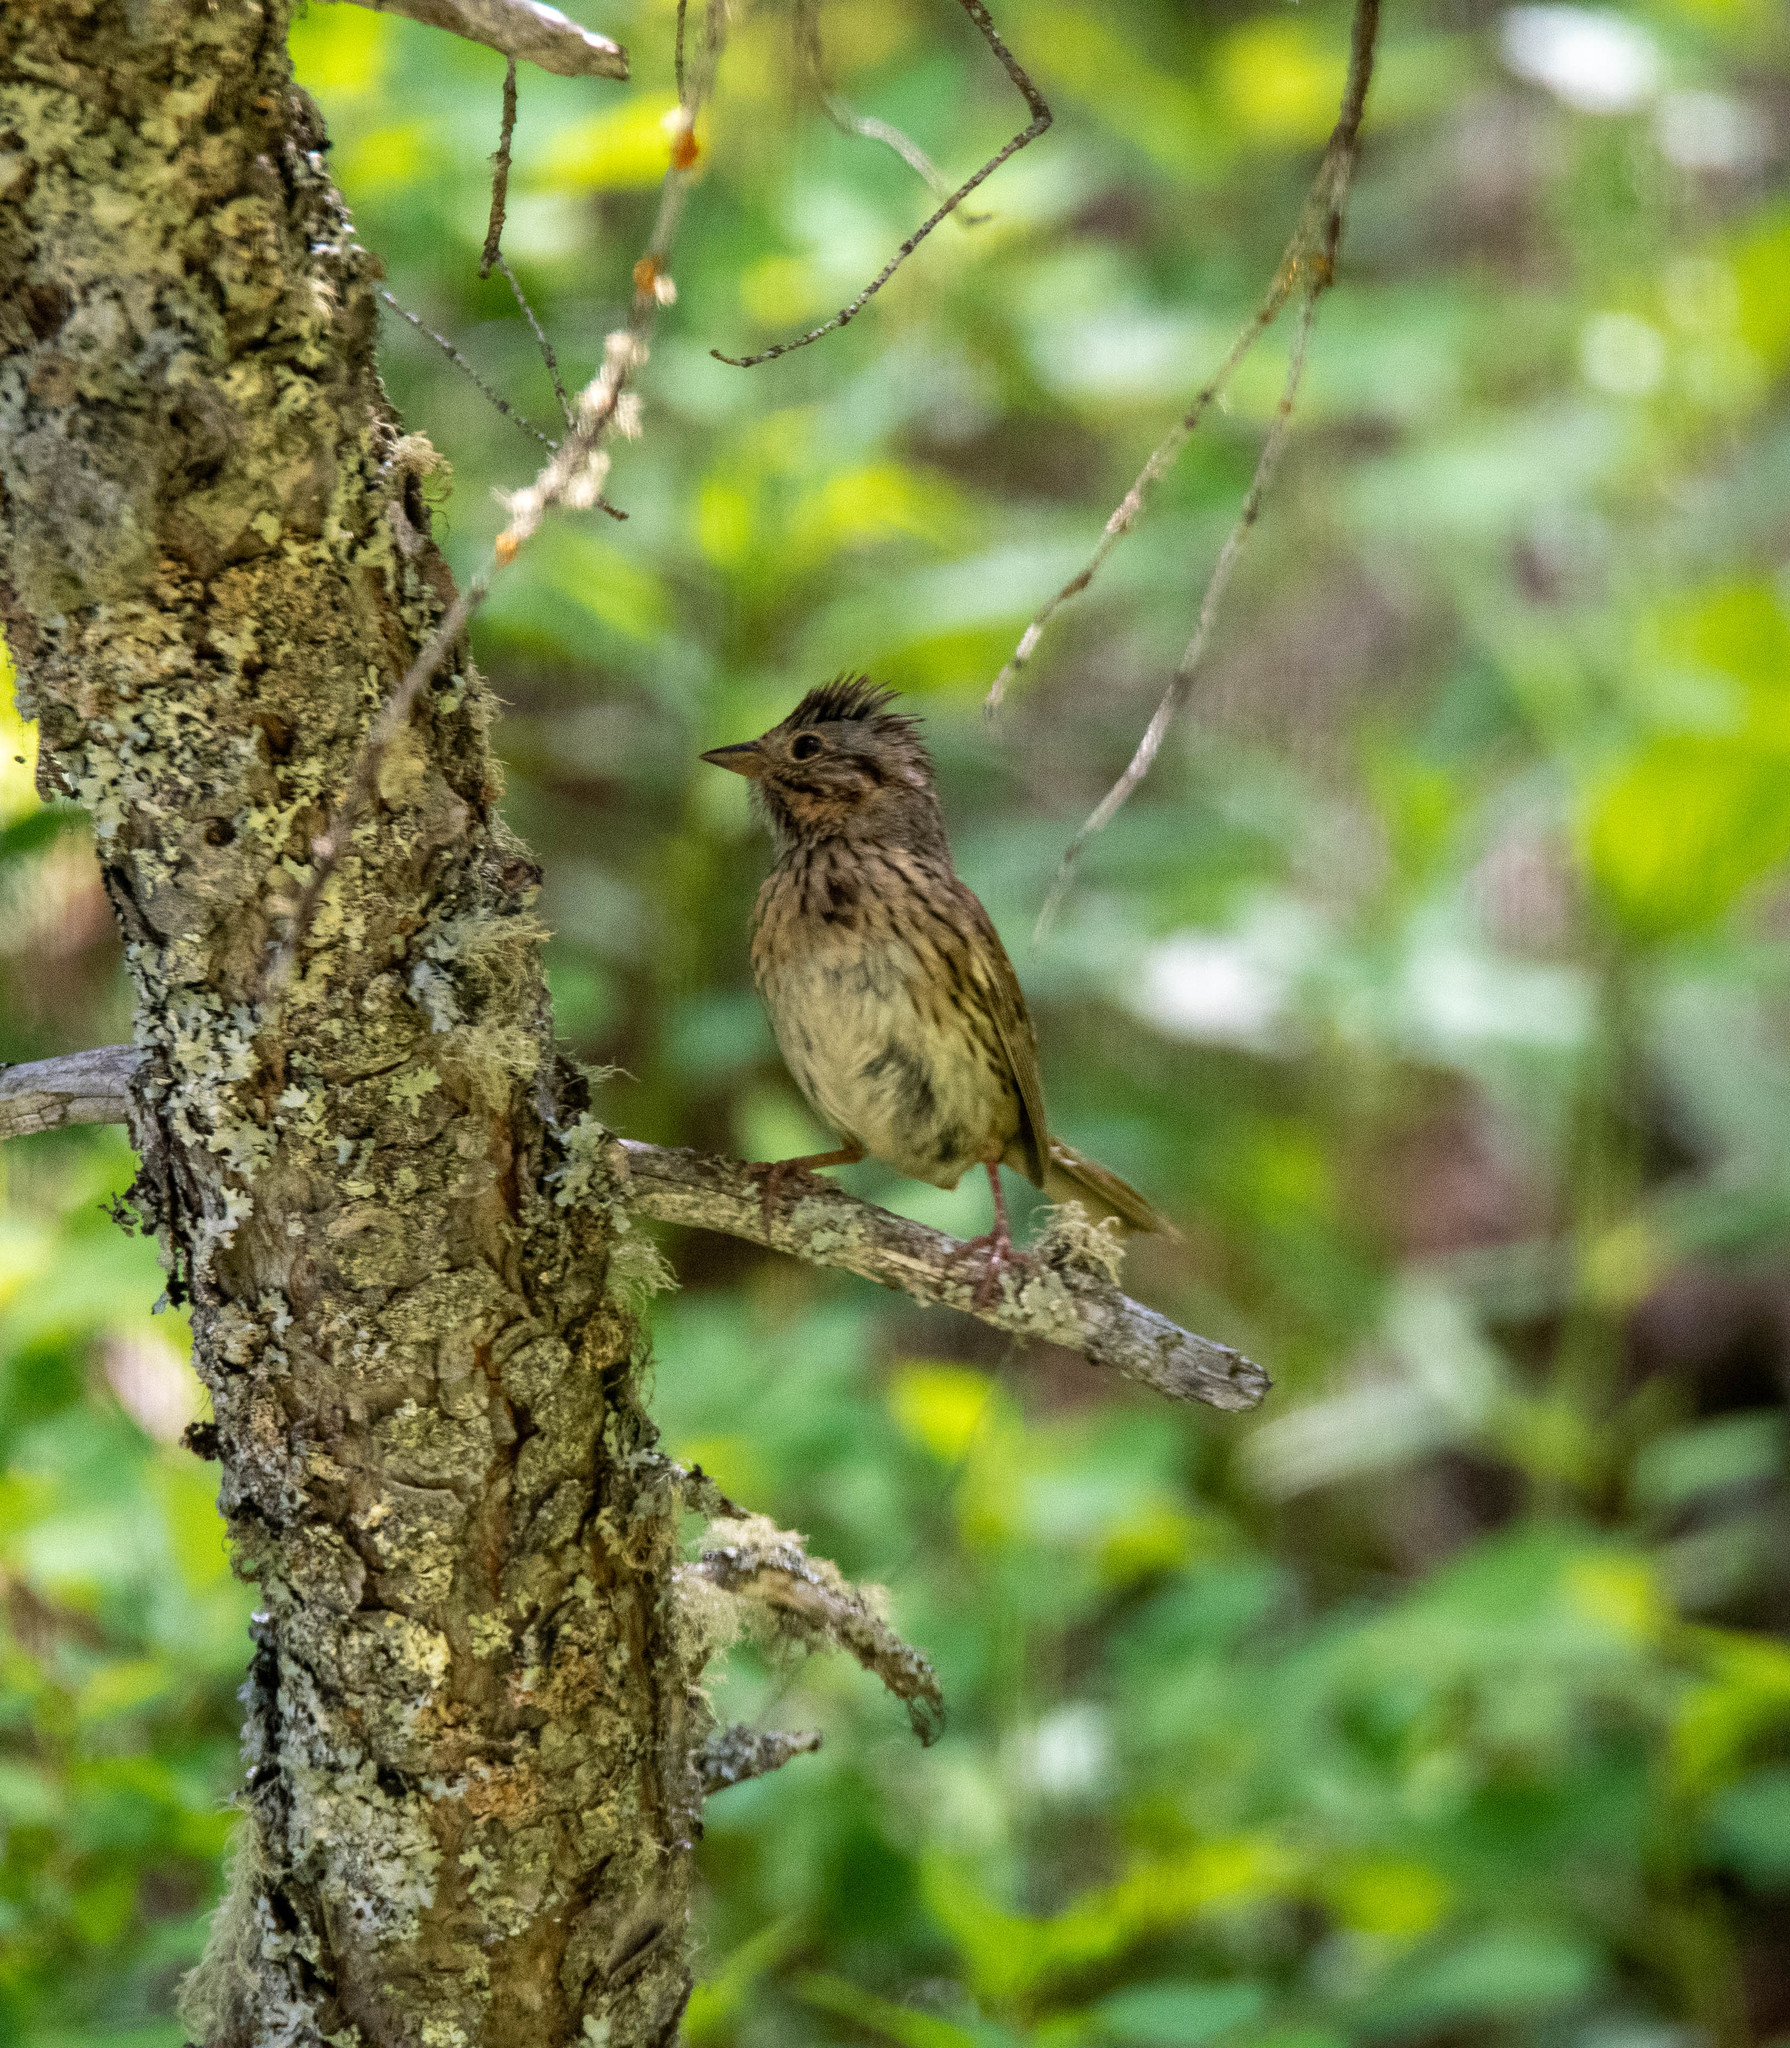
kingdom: Animalia
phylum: Chordata
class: Aves
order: Passeriformes
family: Passerellidae
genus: Melospiza
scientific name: Melospiza lincolnii
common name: Lincoln's sparrow
